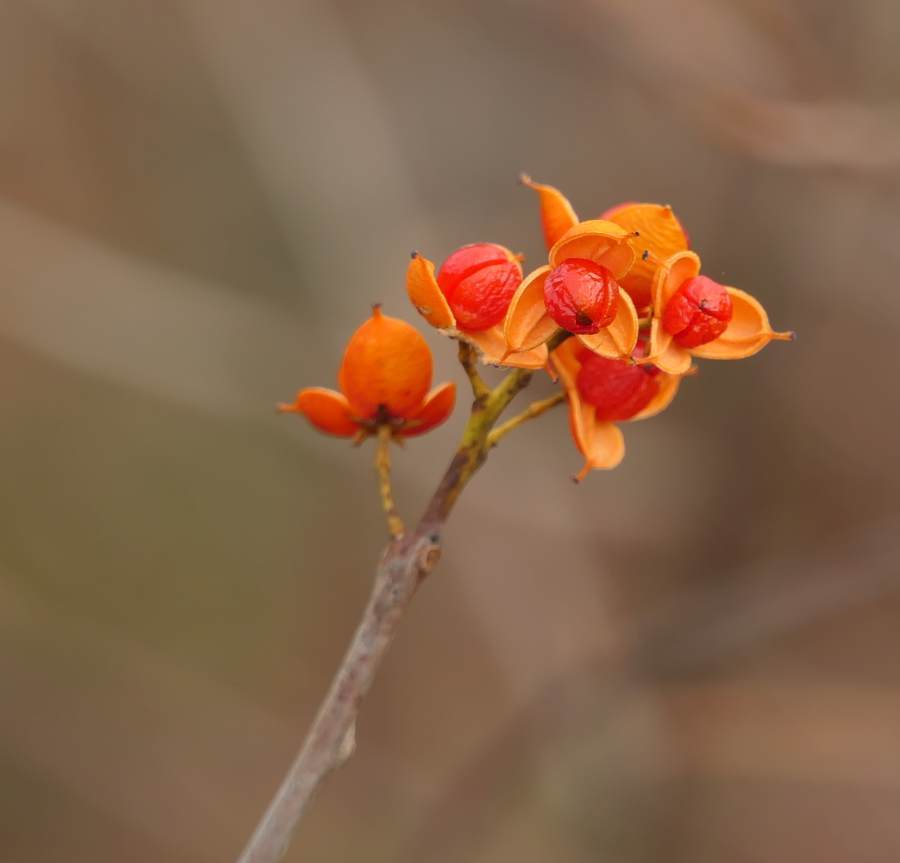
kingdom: Plantae
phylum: Tracheophyta
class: Magnoliopsida
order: Celastrales
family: Celastraceae
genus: Celastrus
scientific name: Celastrus scandens
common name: American bittersweet
